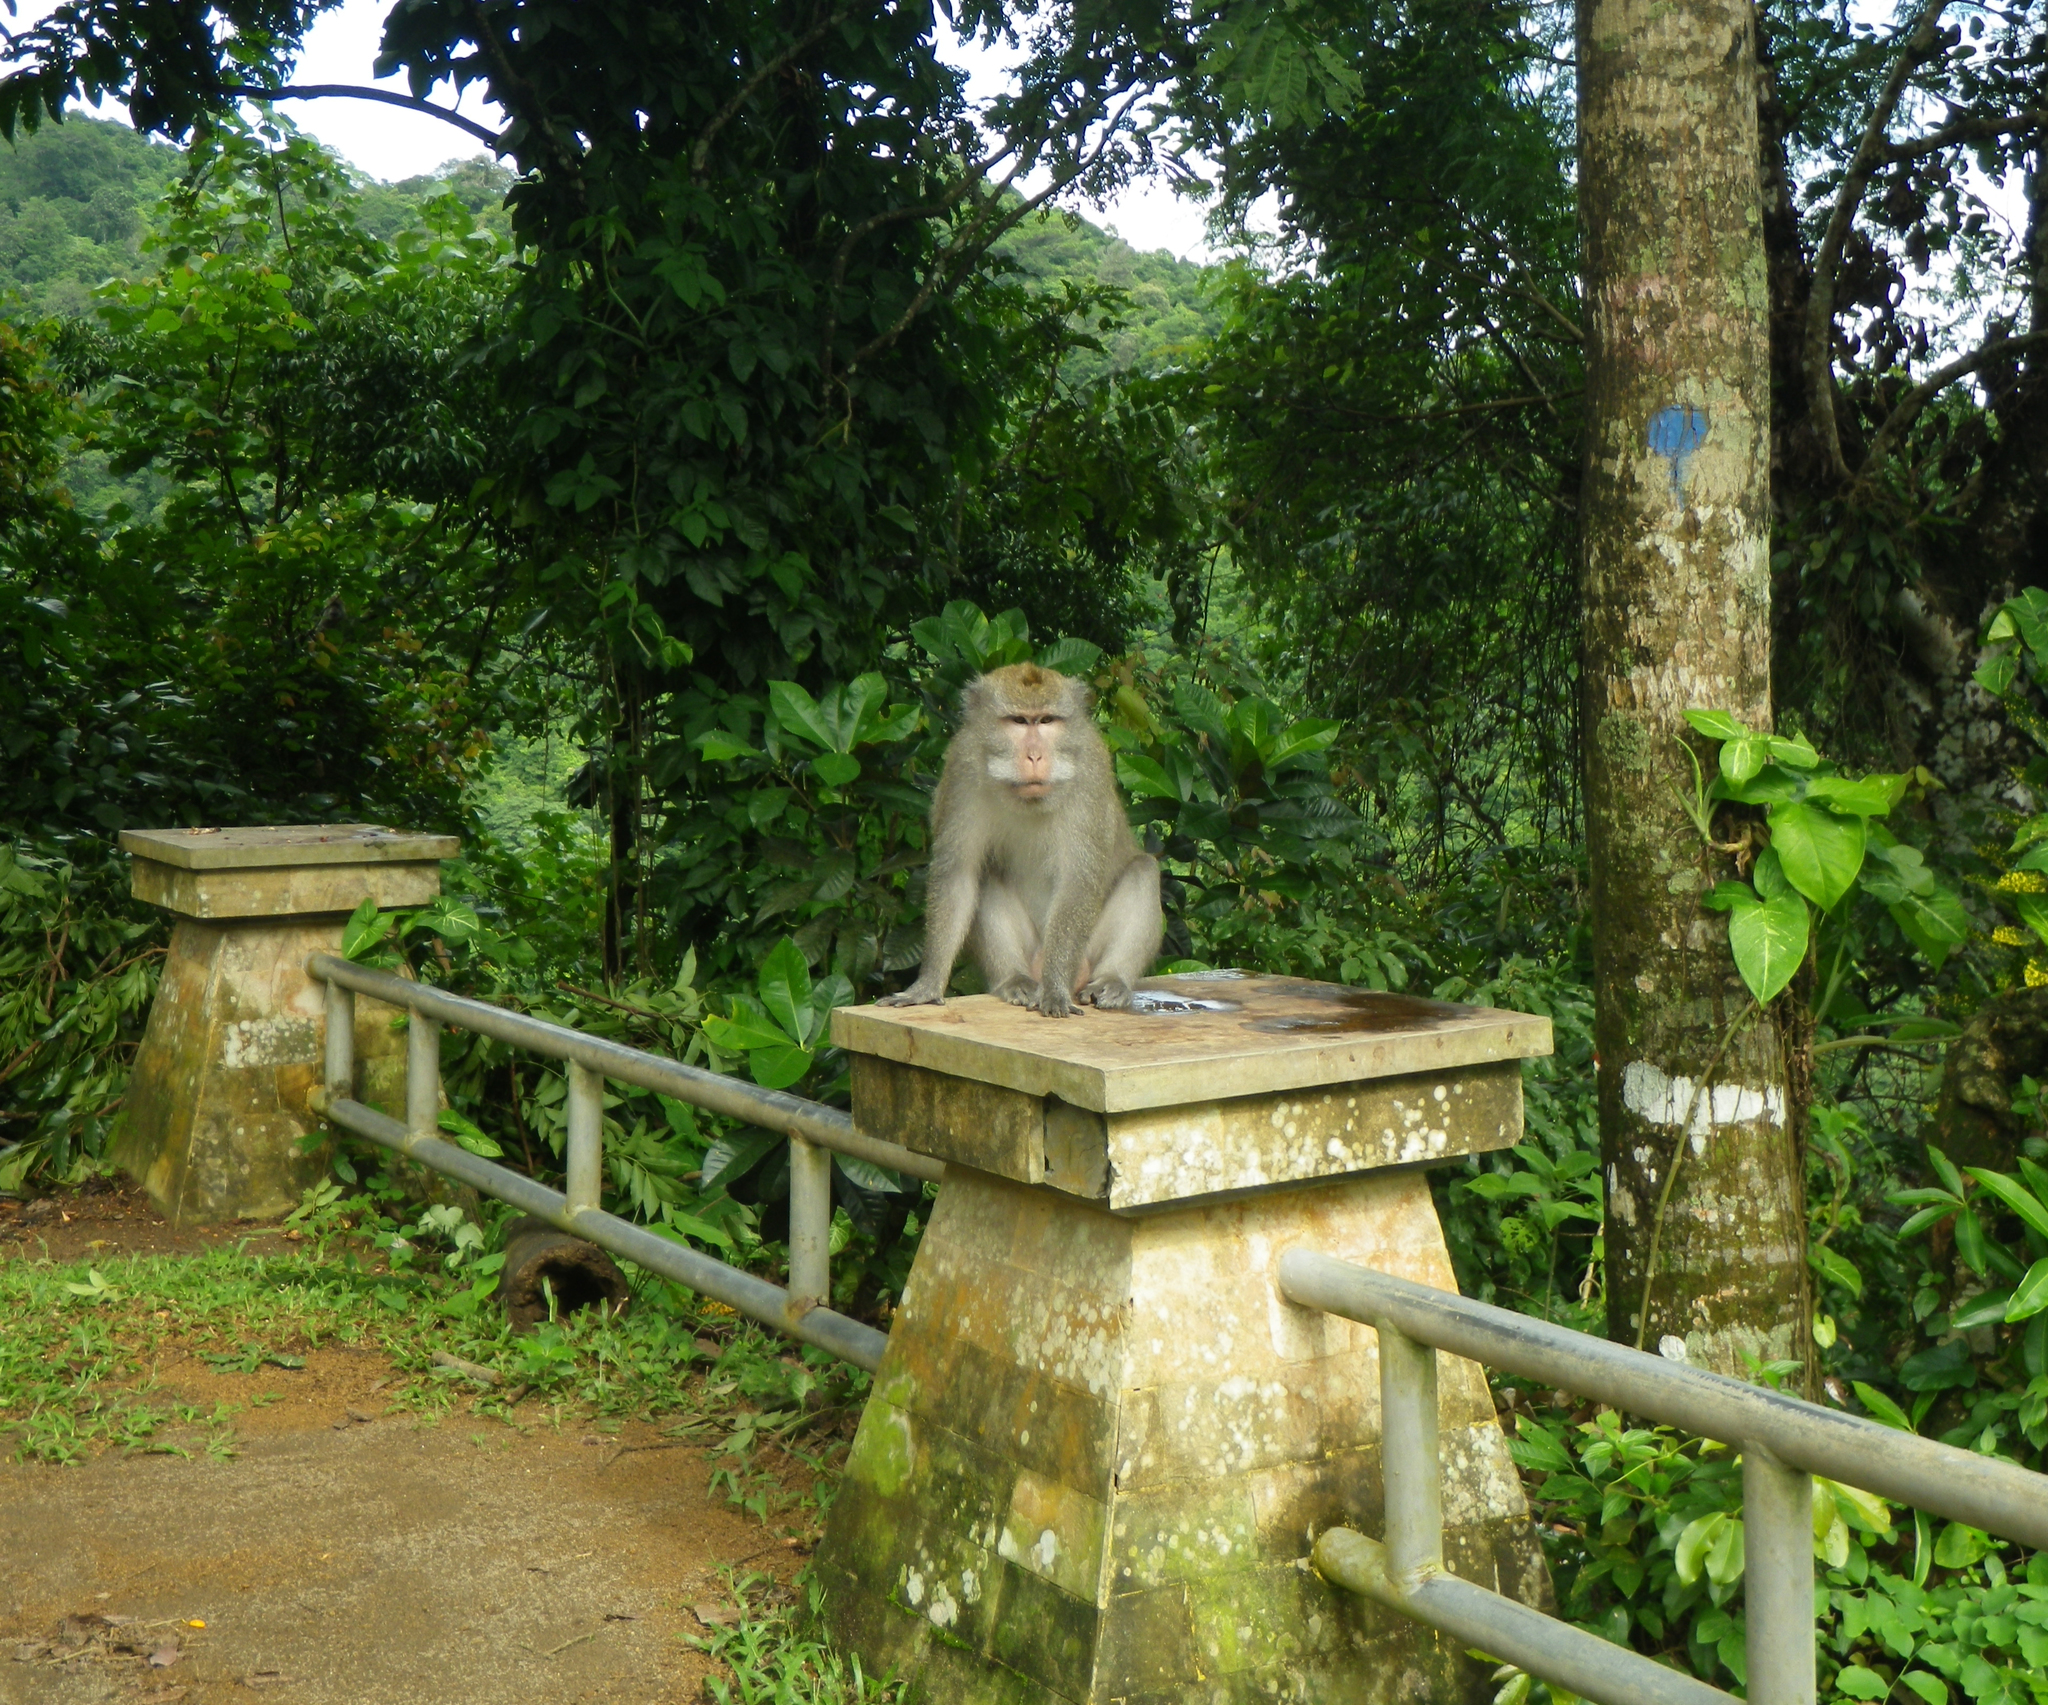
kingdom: Animalia
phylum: Chordata
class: Mammalia
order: Primates
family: Cercopithecidae
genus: Macaca
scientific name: Macaca fascicularis
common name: Crab-eating macaque
